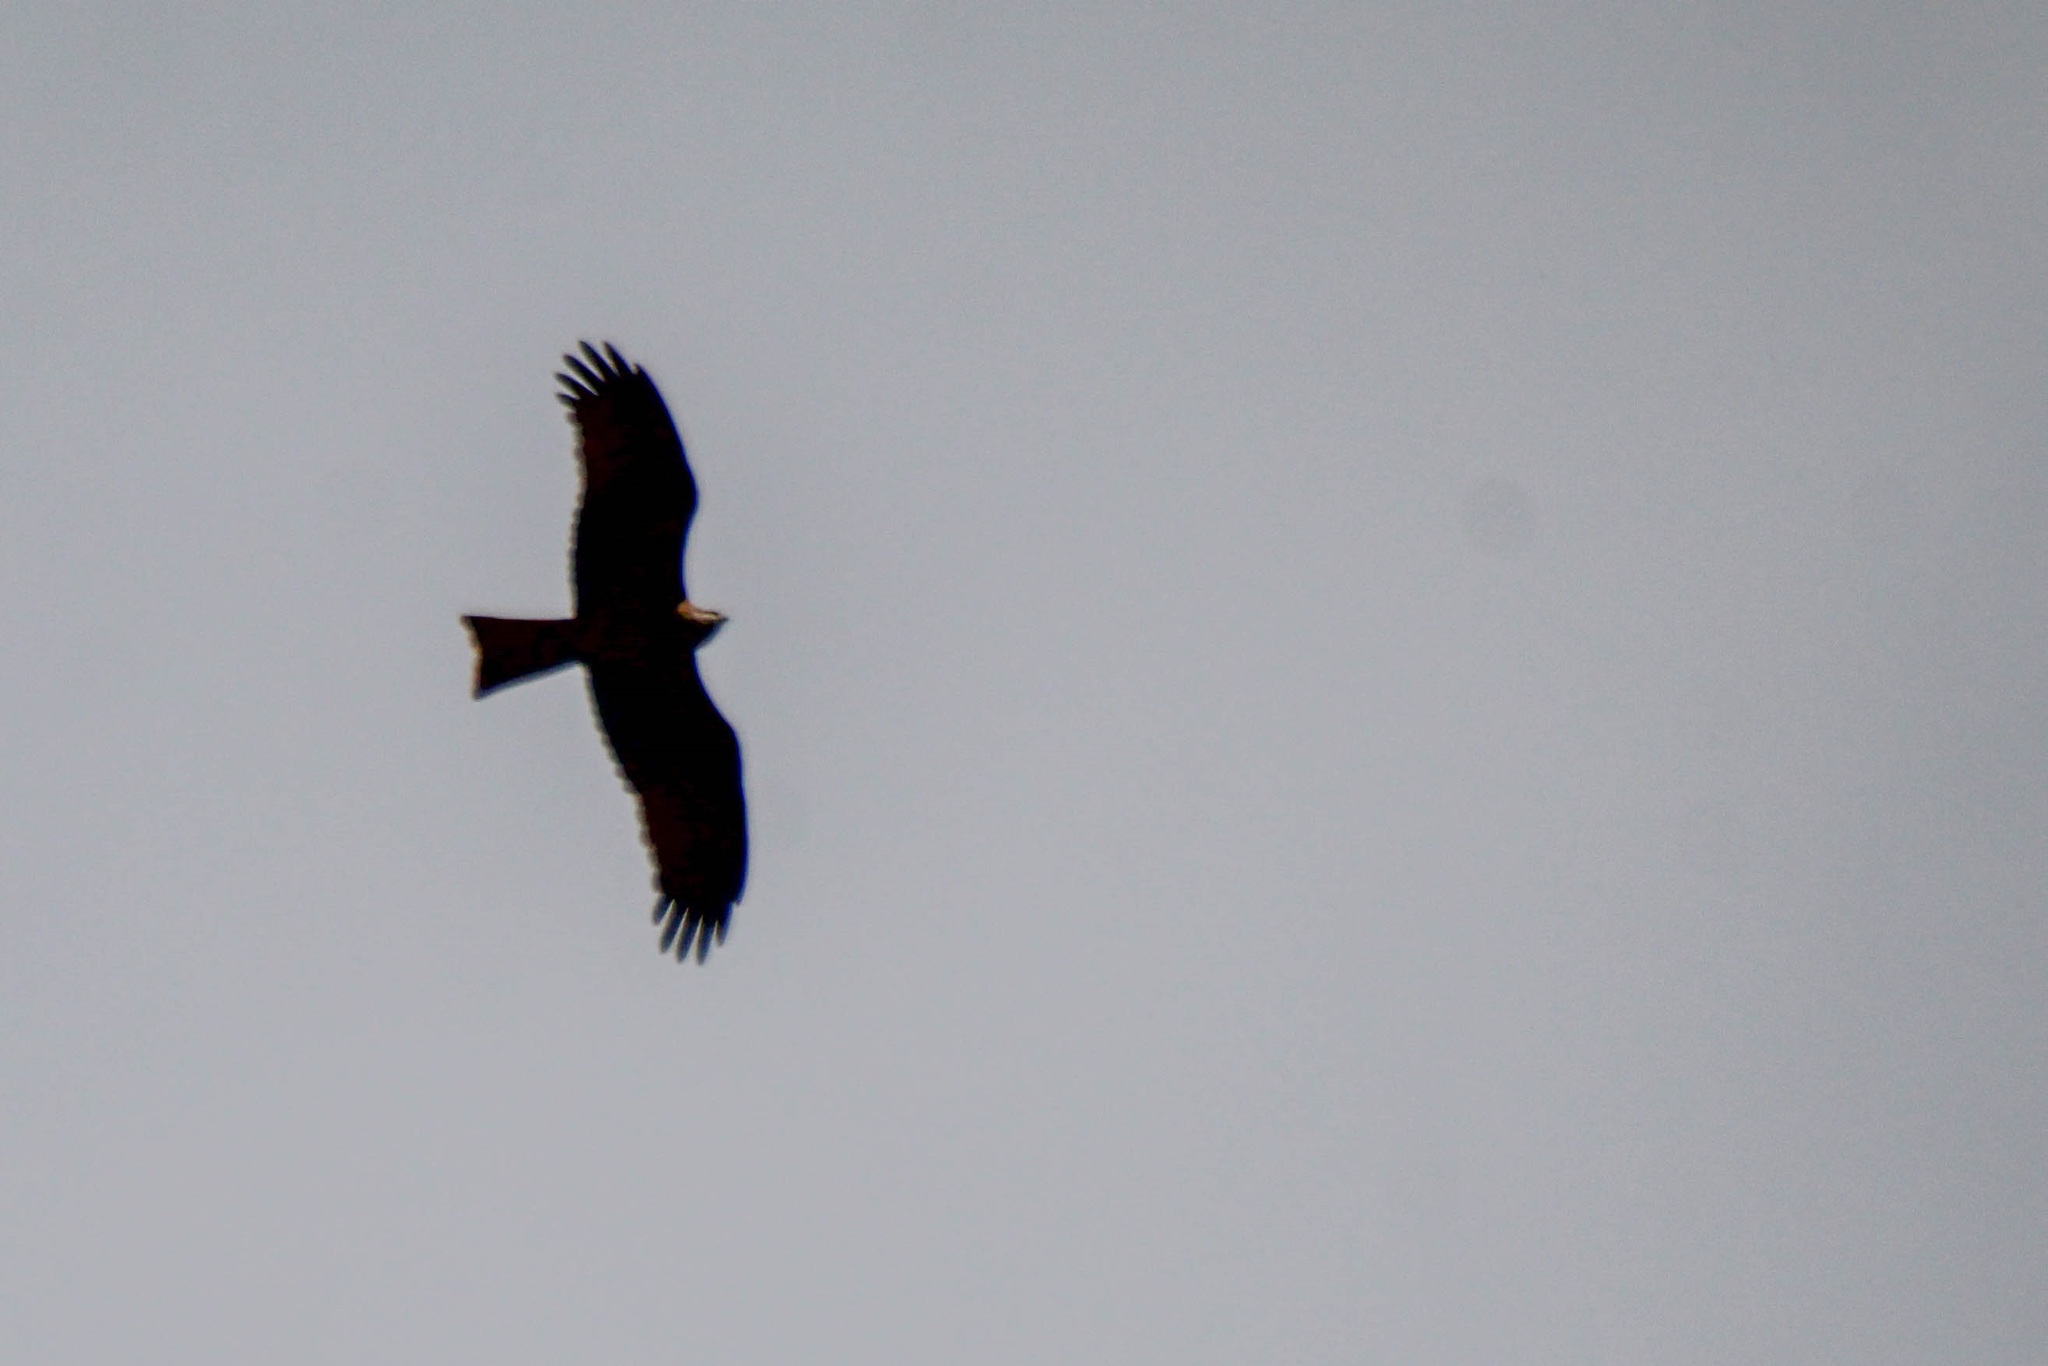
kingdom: Animalia
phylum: Chordata
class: Aves
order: Accipitriformes
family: Accipitridae
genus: Milvus
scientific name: Milvus migrans
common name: Black kite
